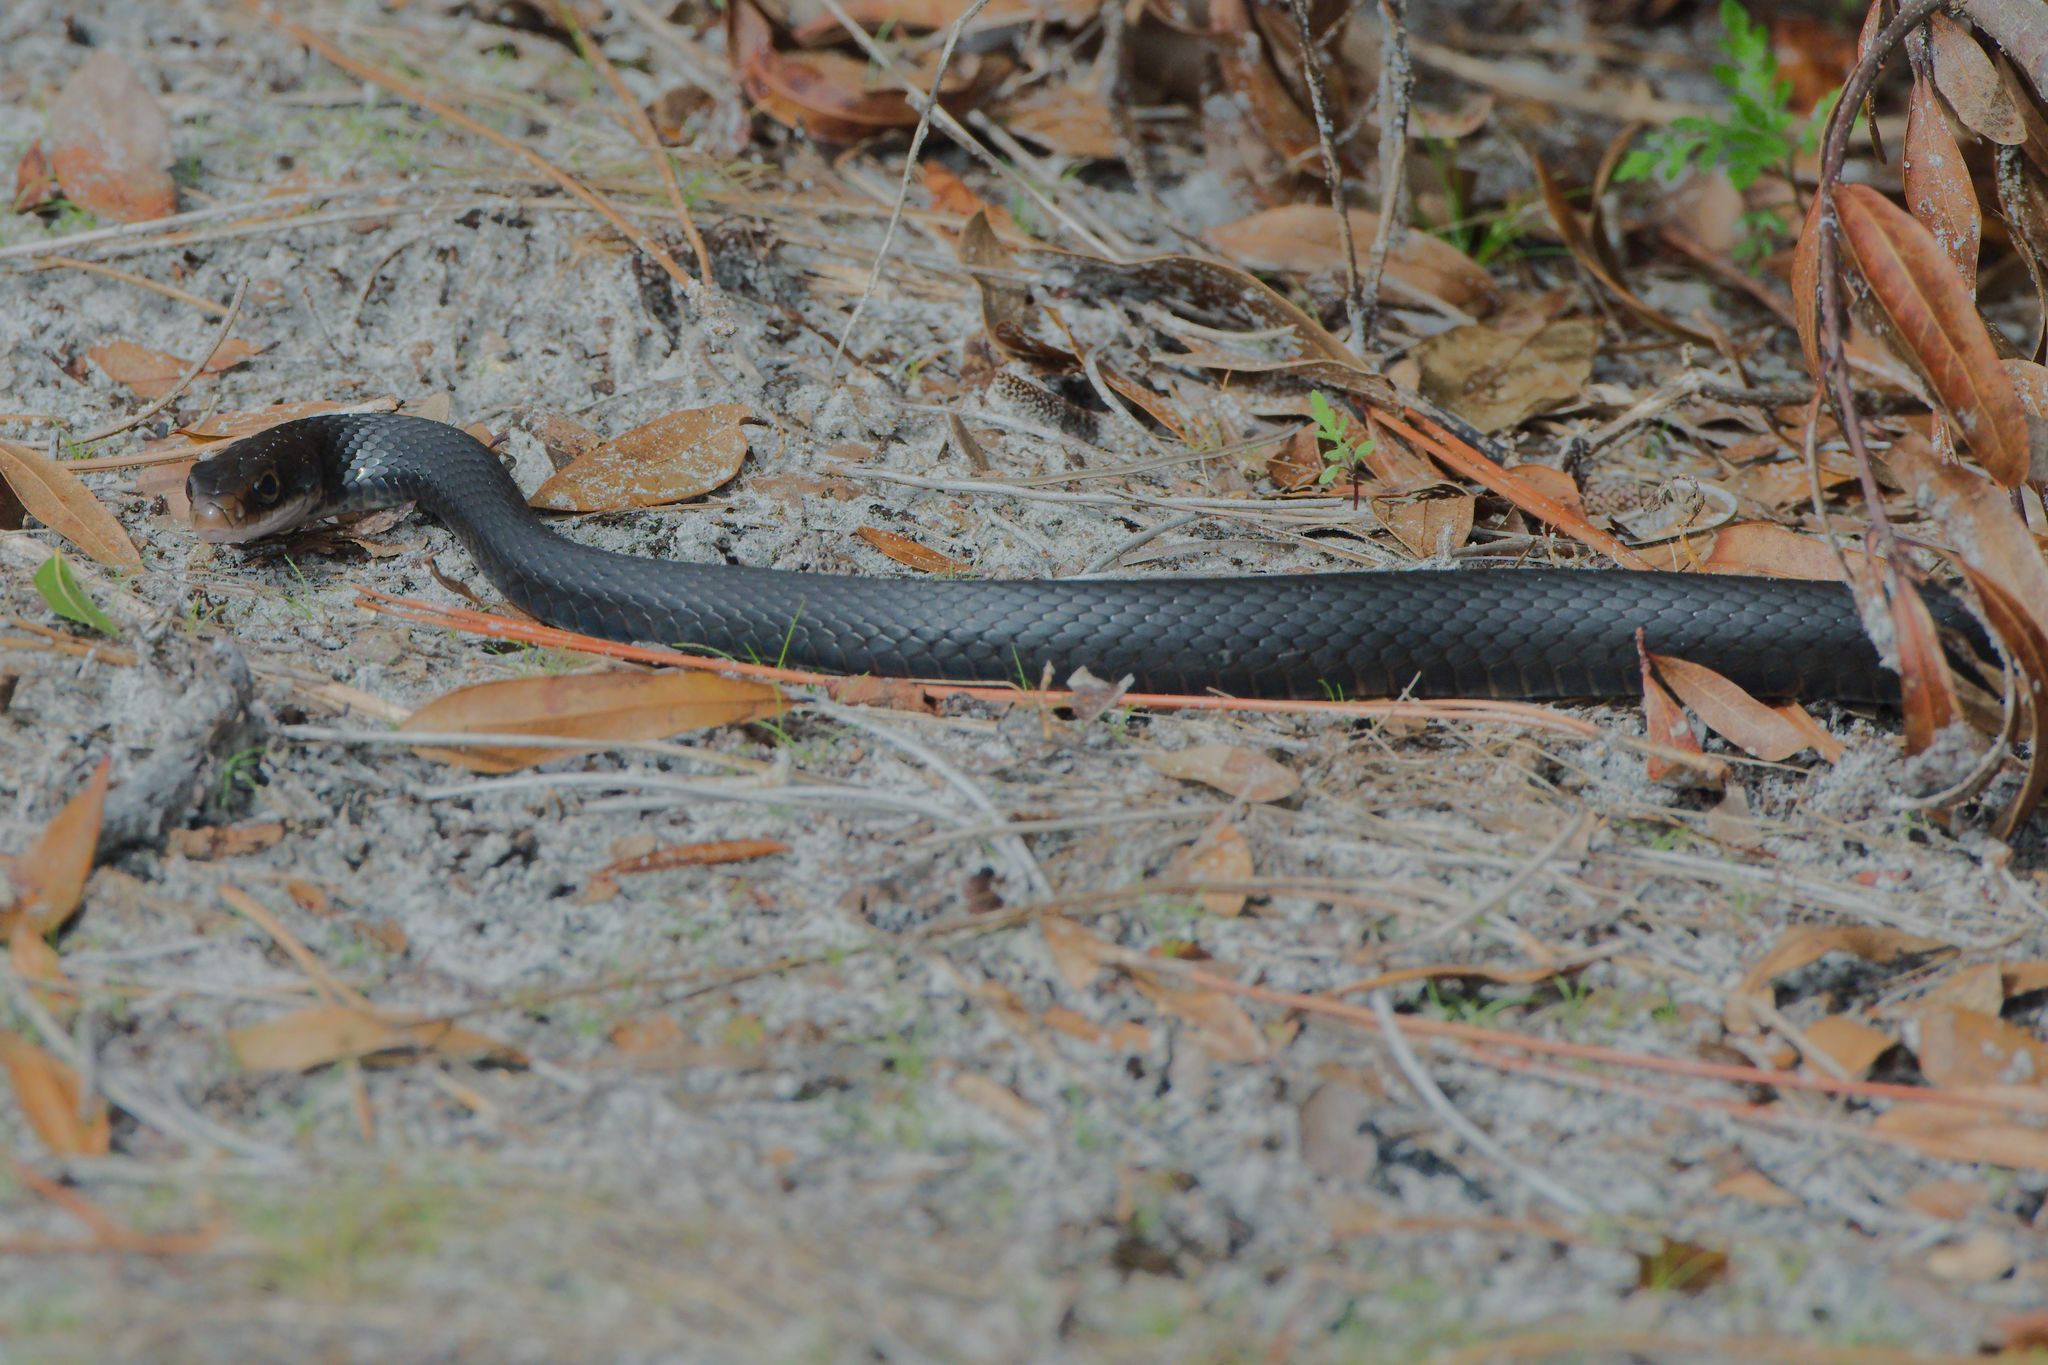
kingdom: Animalia
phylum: Chordata
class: Squamata
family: Colubridae
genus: Coluber
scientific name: Coluber constrictor
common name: Eastern racer
